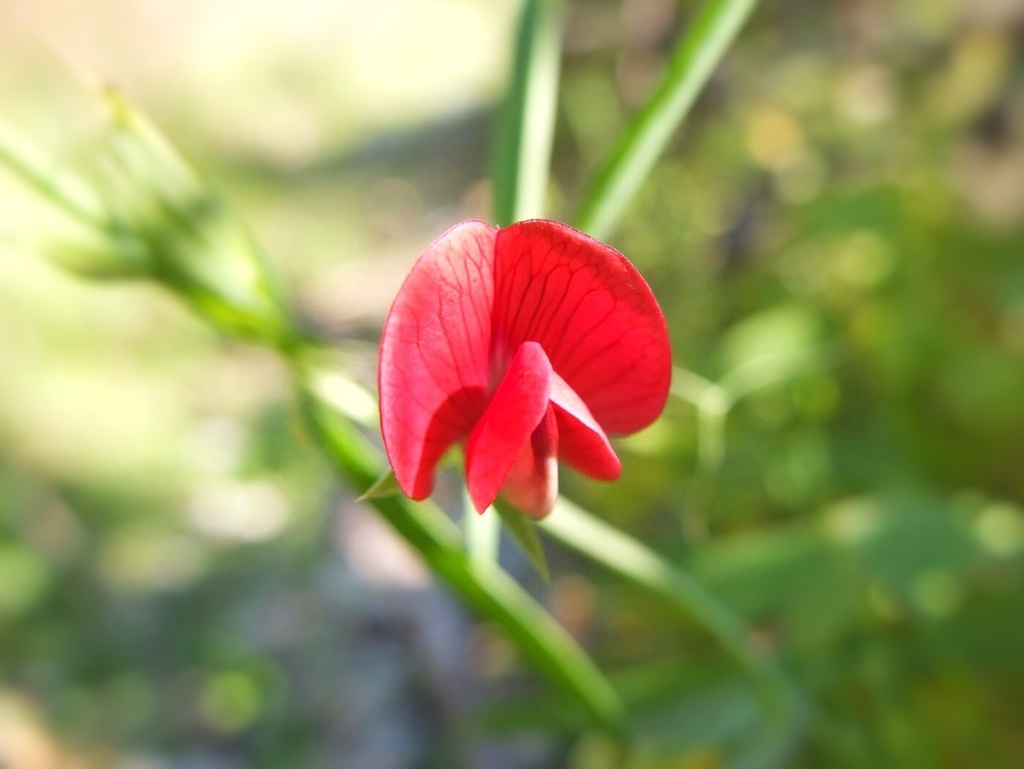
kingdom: Plantae
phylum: Tracheophyta
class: Magnoliopsida
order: Fabales
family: Fabaceae
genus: Lathyrus
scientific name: Lathyrus cicera
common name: Red vetchling
